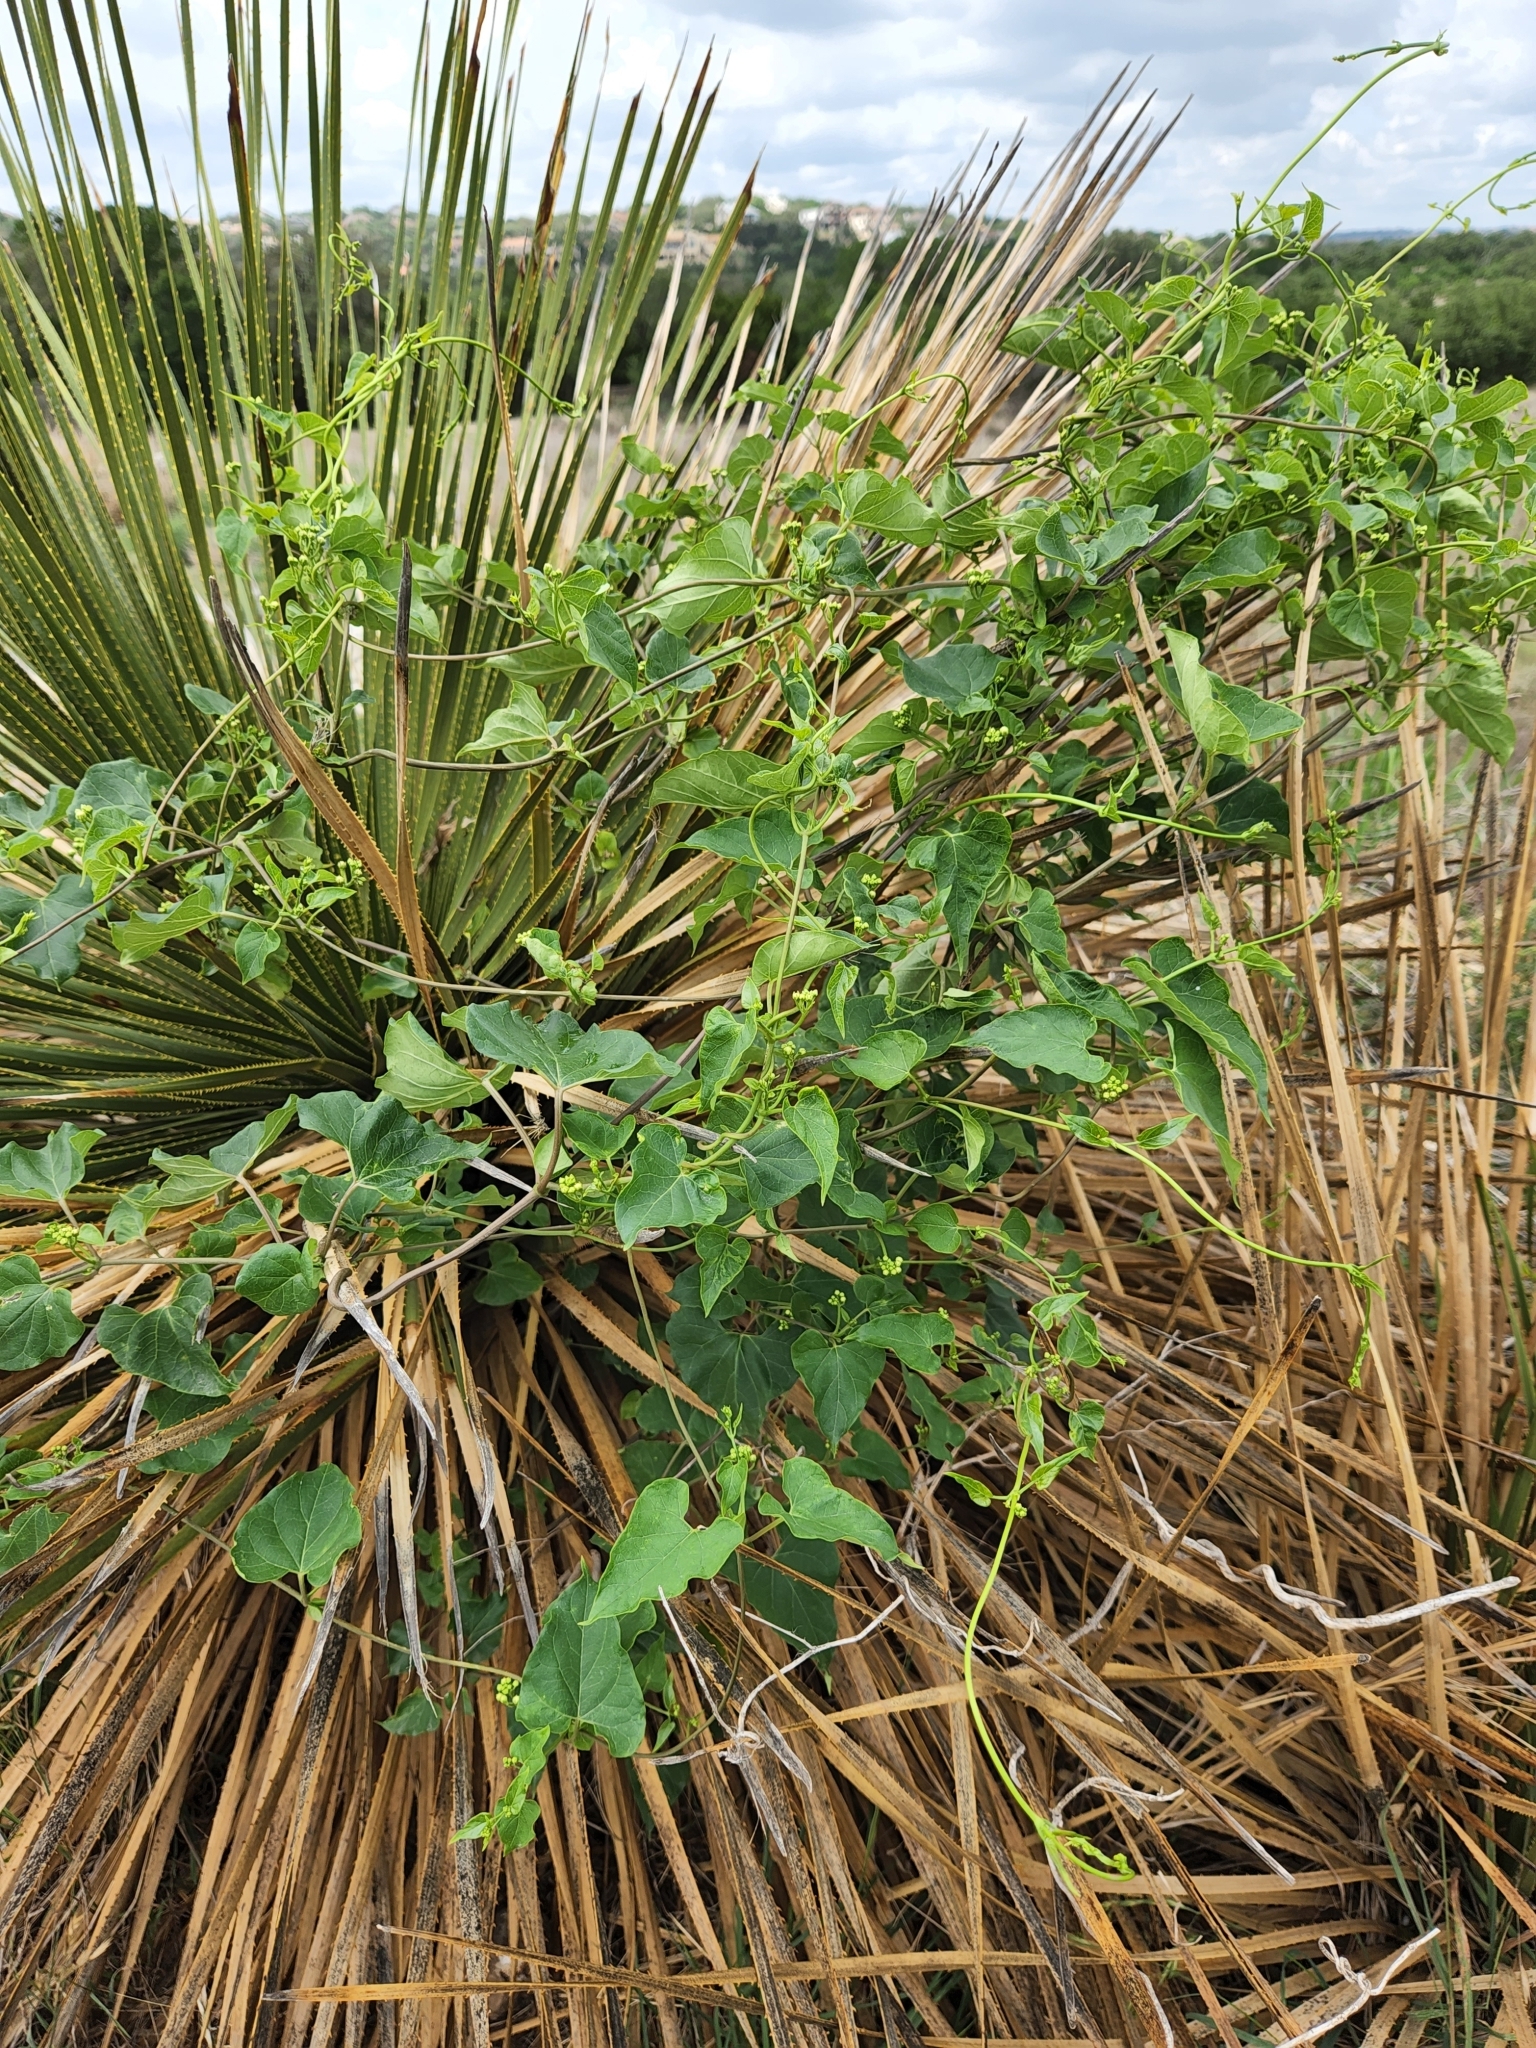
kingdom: Plantae
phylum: Tracheophyta
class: Magnoliopsida
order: Gentianales
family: Apocynaceae
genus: Cynanchum
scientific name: Cynanchum racemosum
